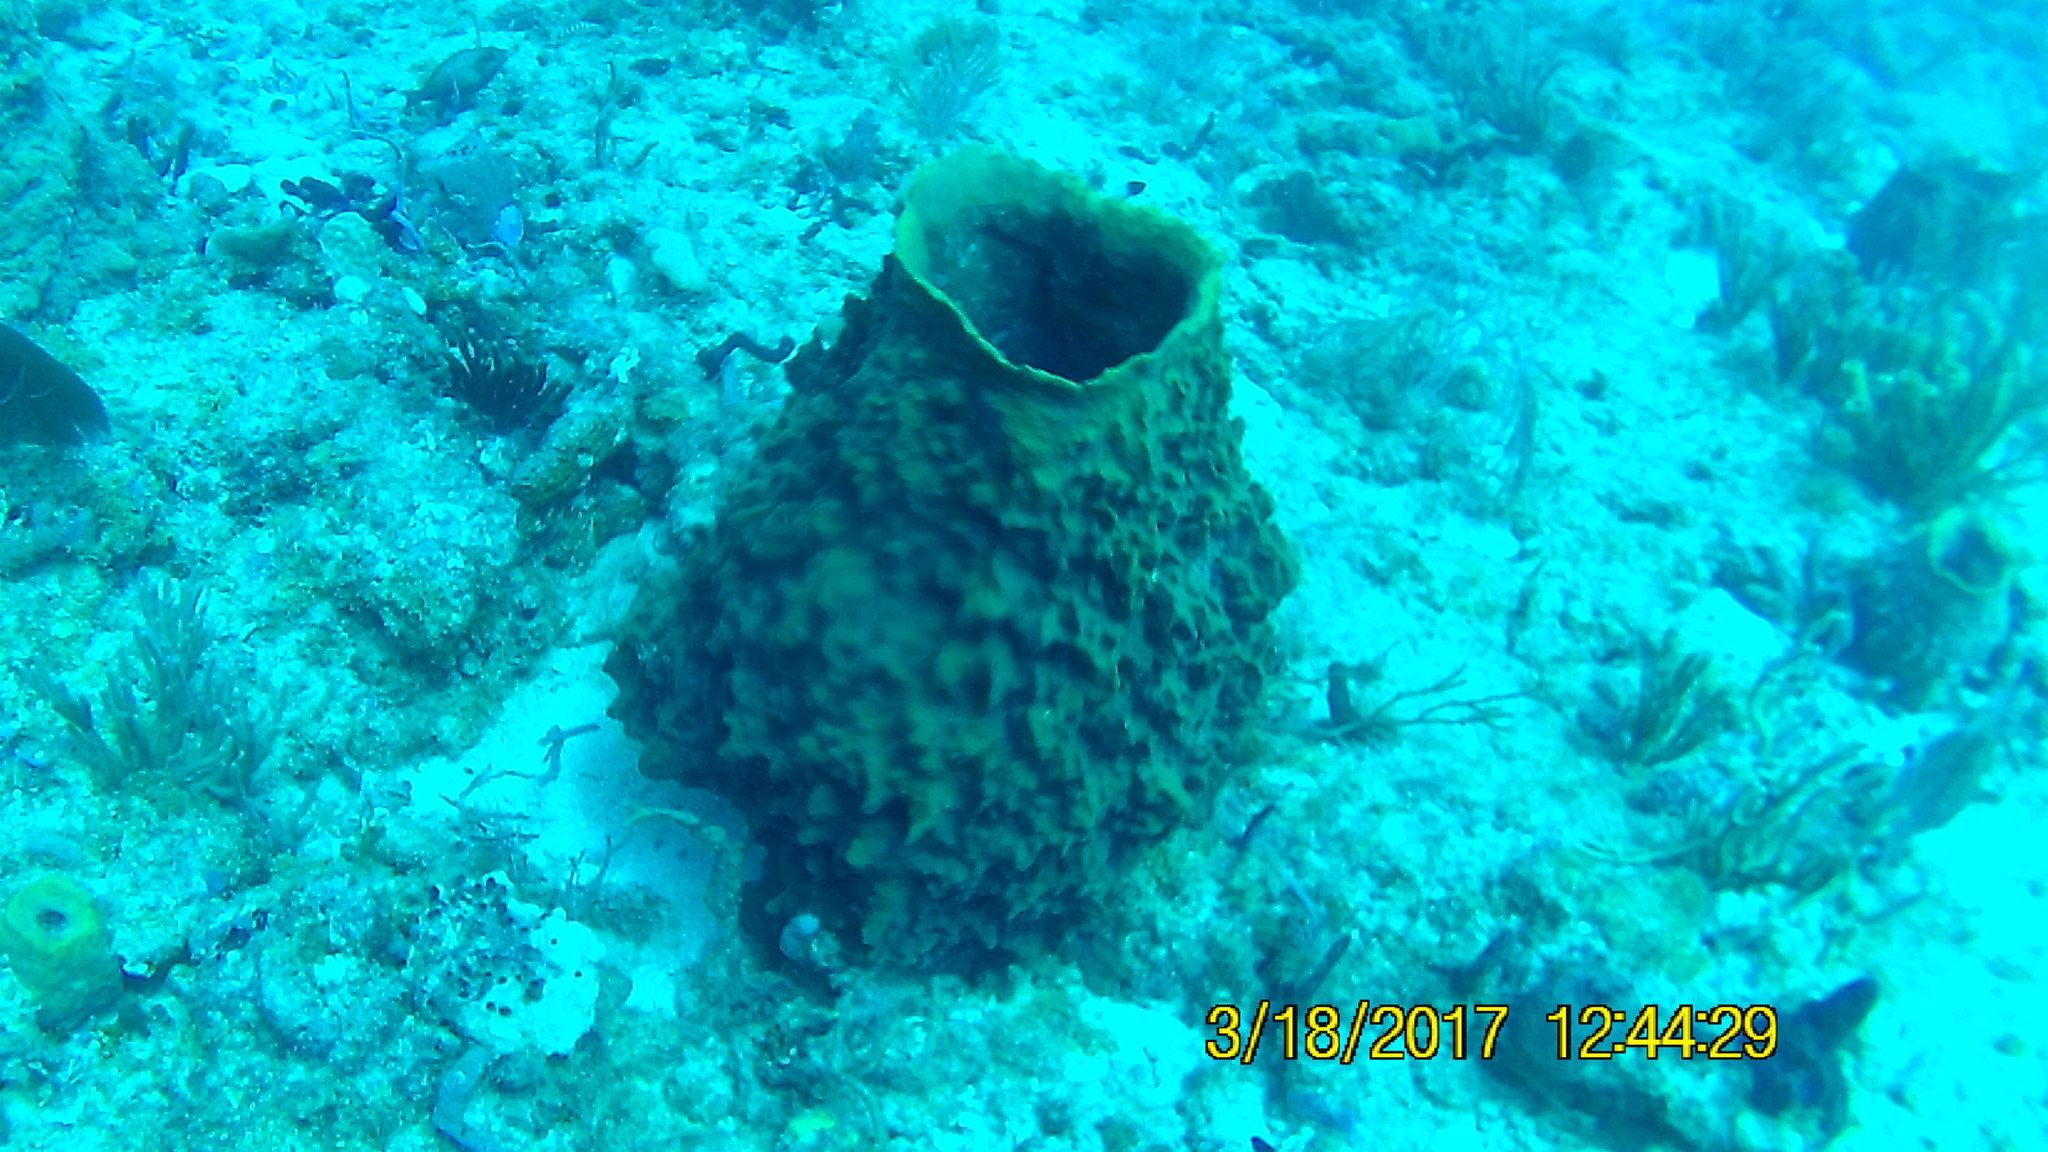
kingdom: Animalia
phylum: Porifera
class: Demospongiae
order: Haplosclerida
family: Petrosiidae
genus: Xestospongia
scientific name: Xestospongia muta
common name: Giant barrel sponge
